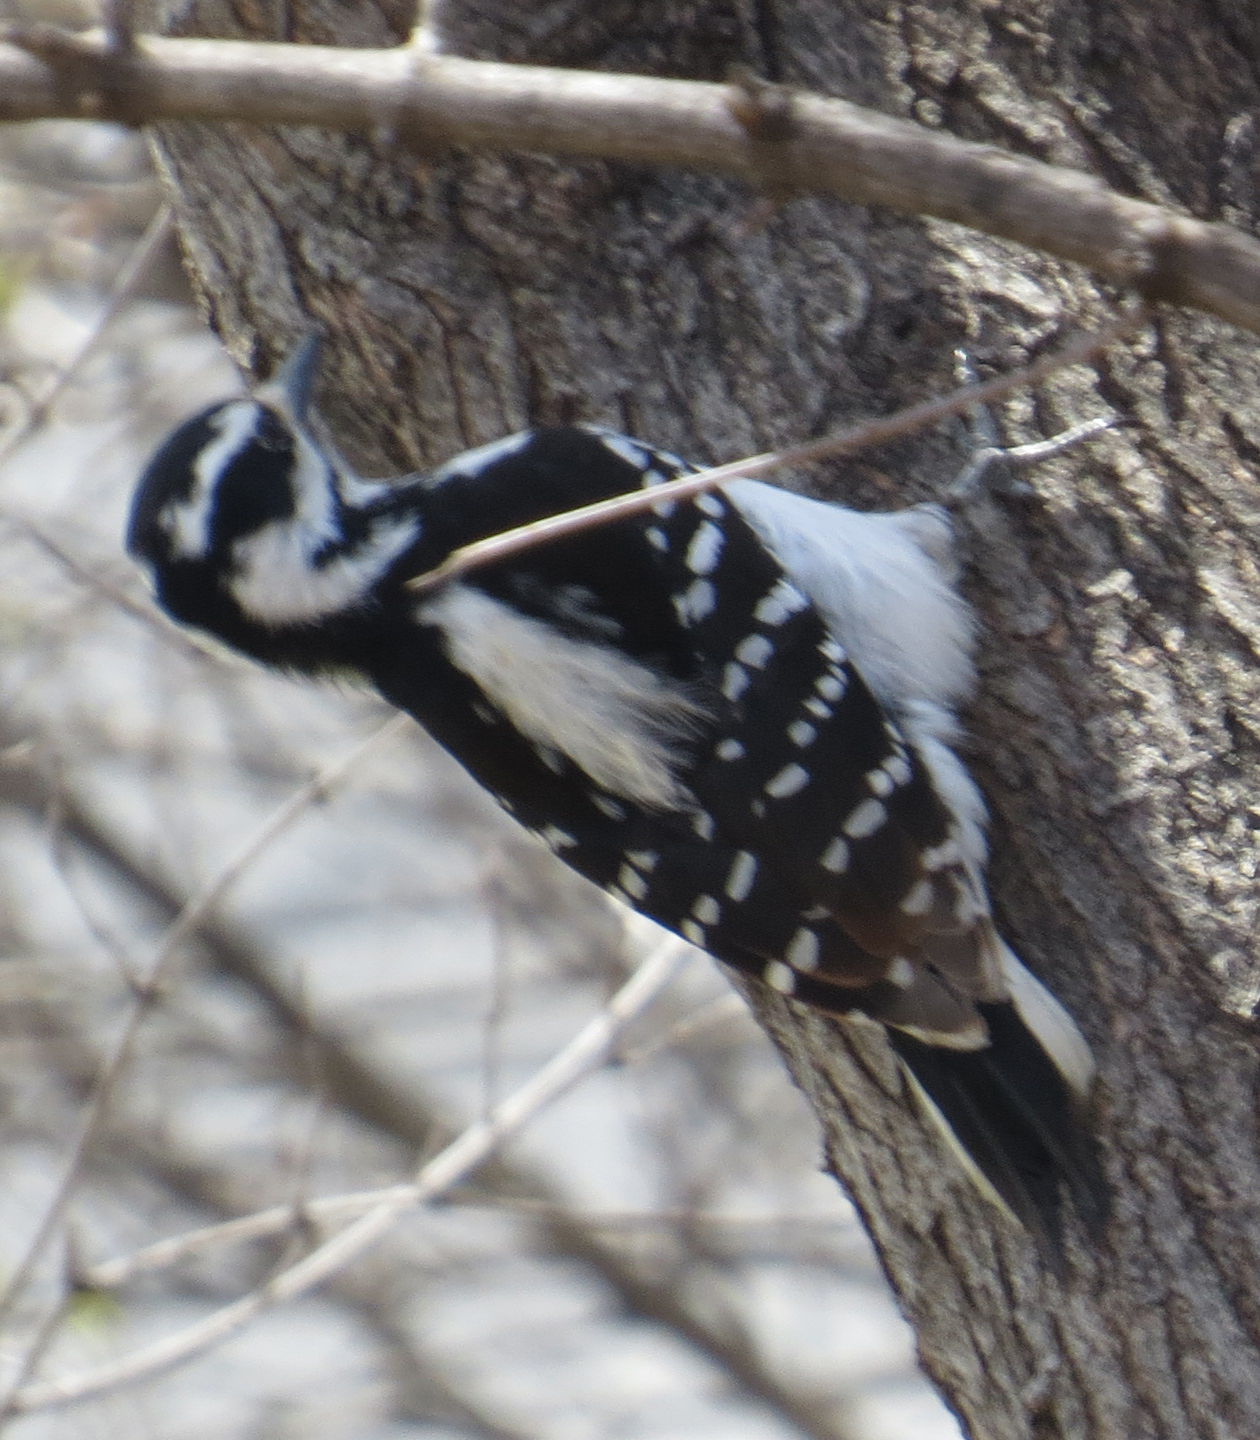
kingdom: Animalia
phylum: Chordata
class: Aves
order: Piciformes
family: Picidae
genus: Leuconotopicus
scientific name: Leuconotopicus villosus
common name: Hairy woodpecker
